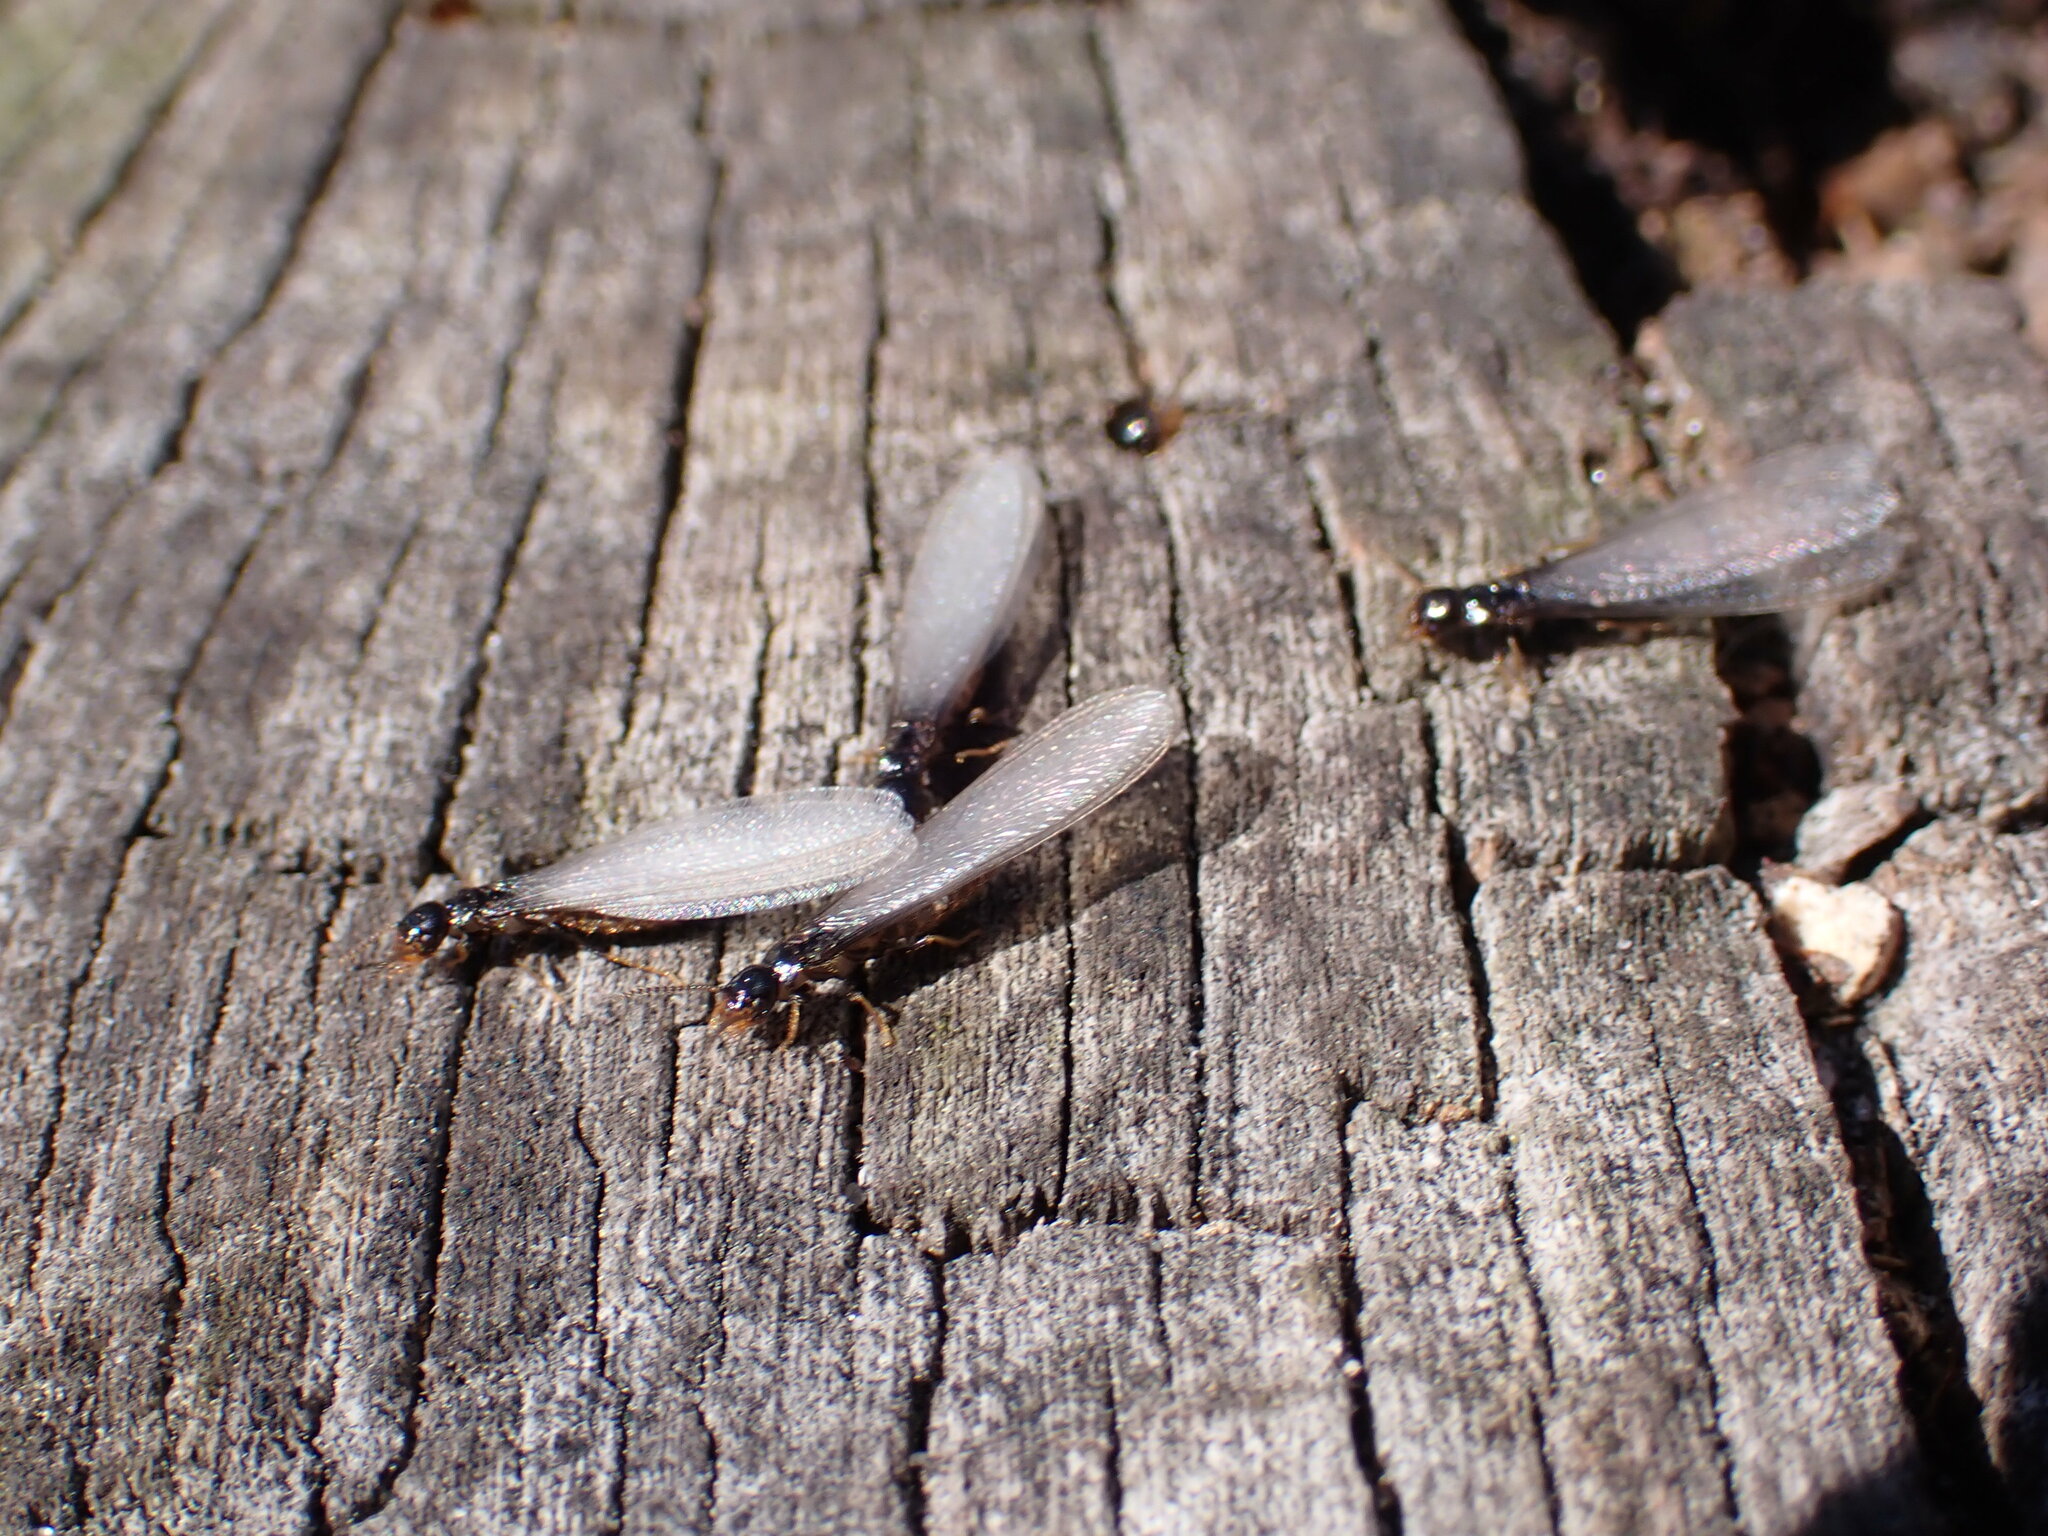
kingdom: Animalia
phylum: Arthropoda
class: Insecta
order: Blattodea
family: Rhinotermitidae
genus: Reticulitermes
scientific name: Reticulitermes flavipes
